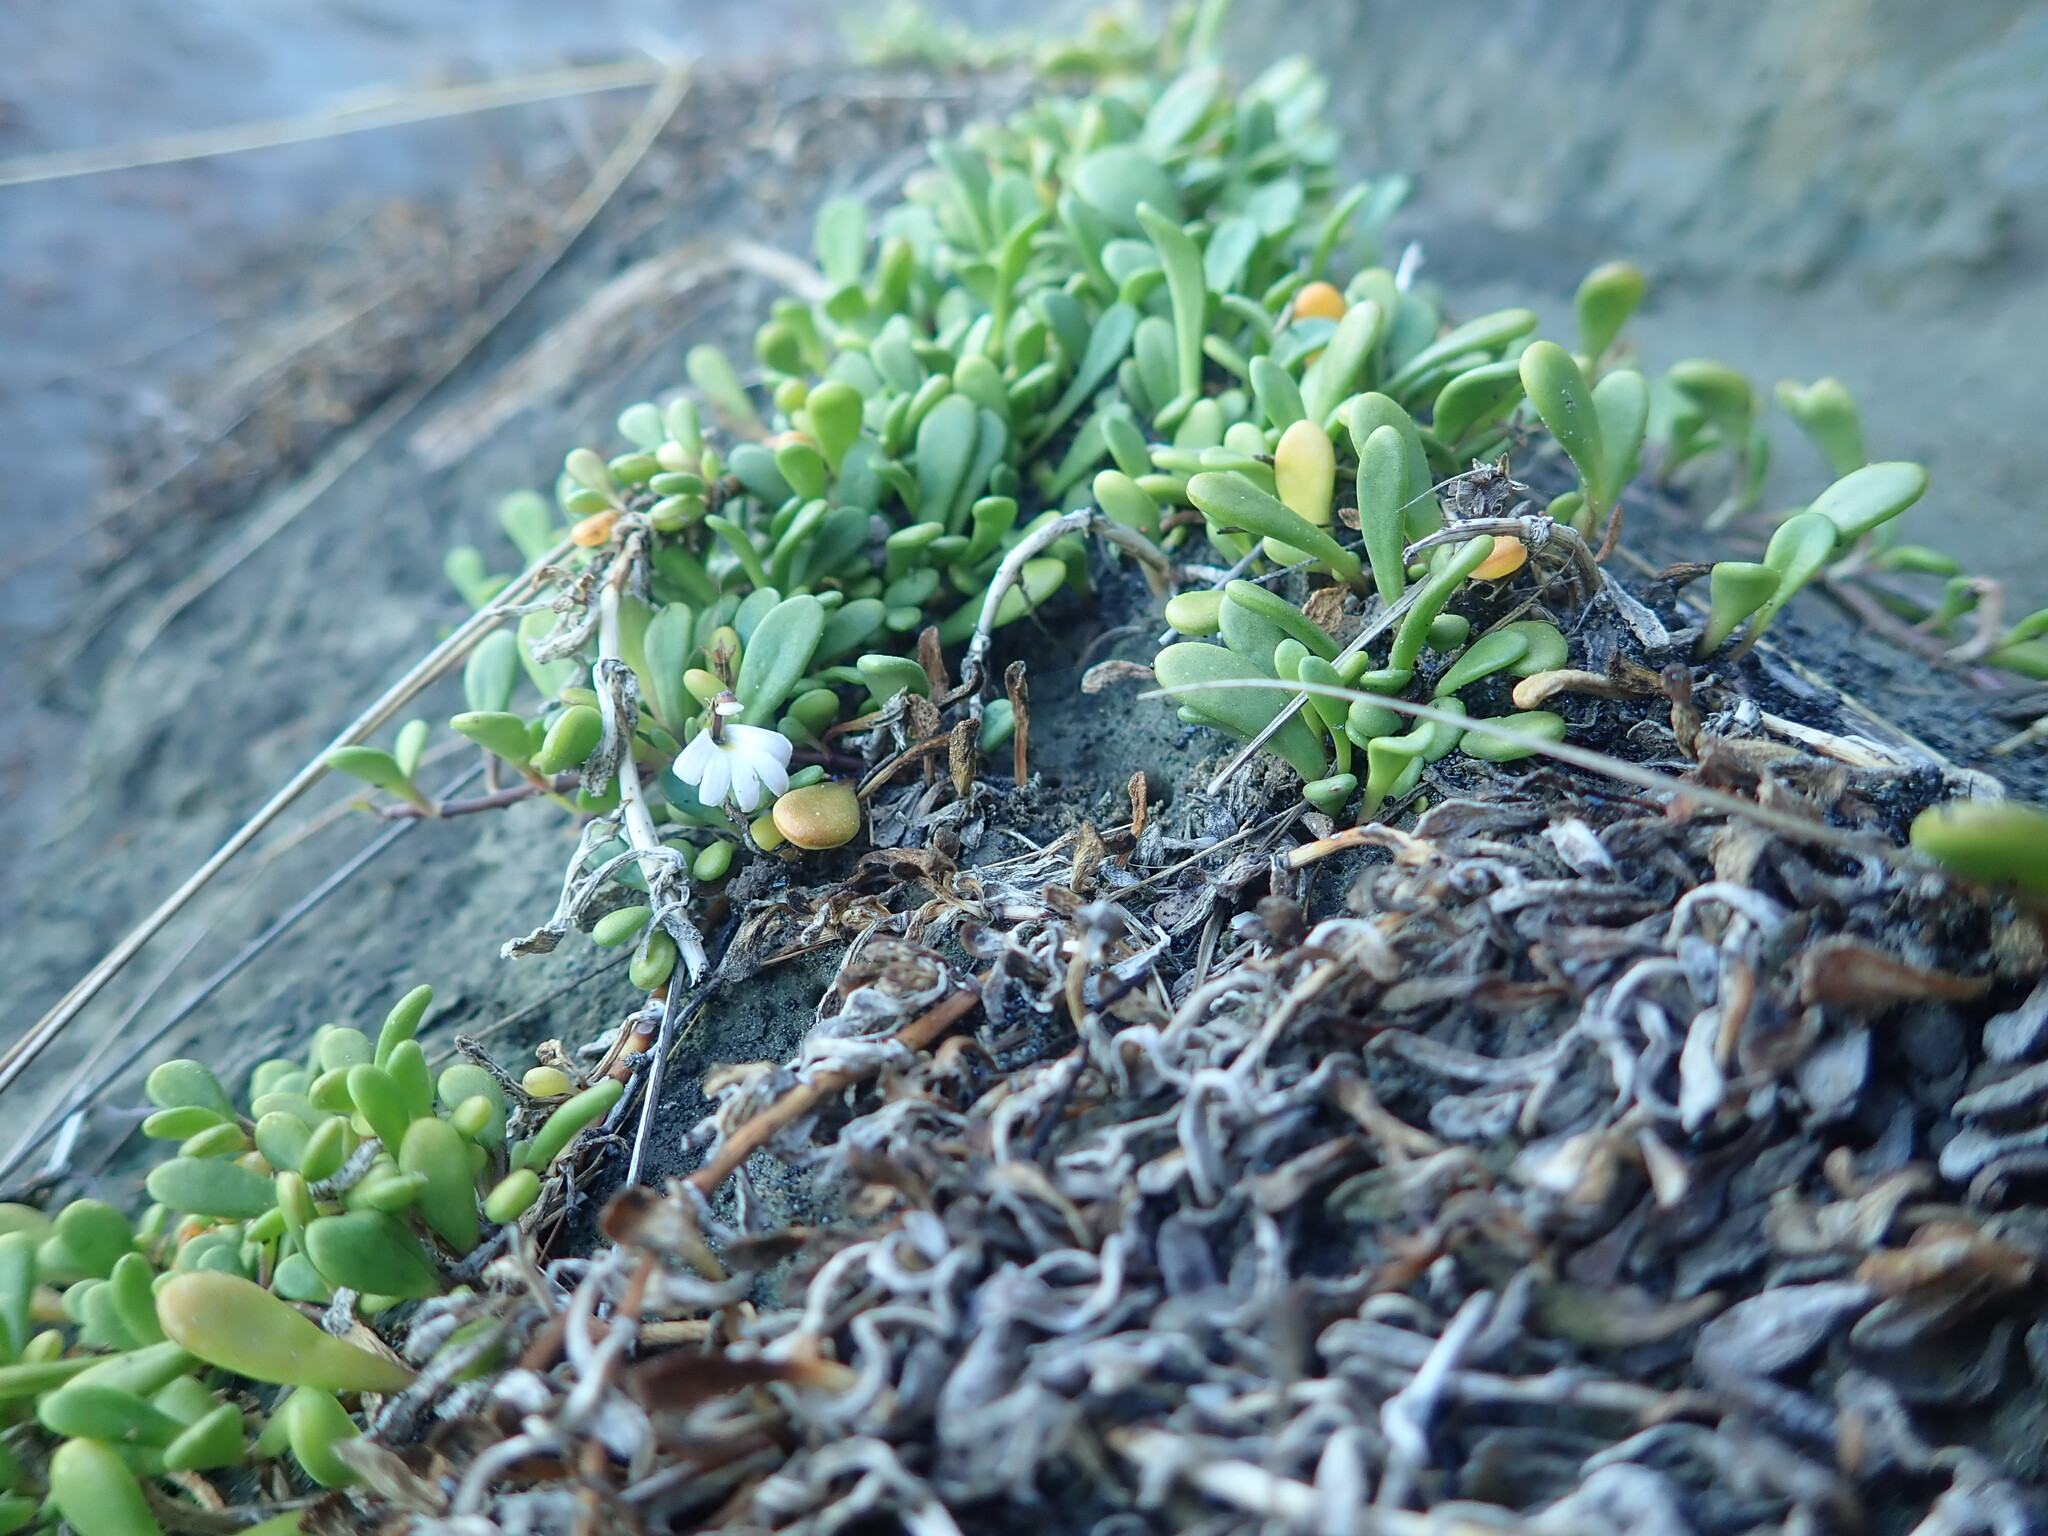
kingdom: Plantae
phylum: Tracheophyta
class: Magnoliopsida
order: Asterales
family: Goodeniaceae
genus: Goodenia
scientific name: Goodenia radicans
